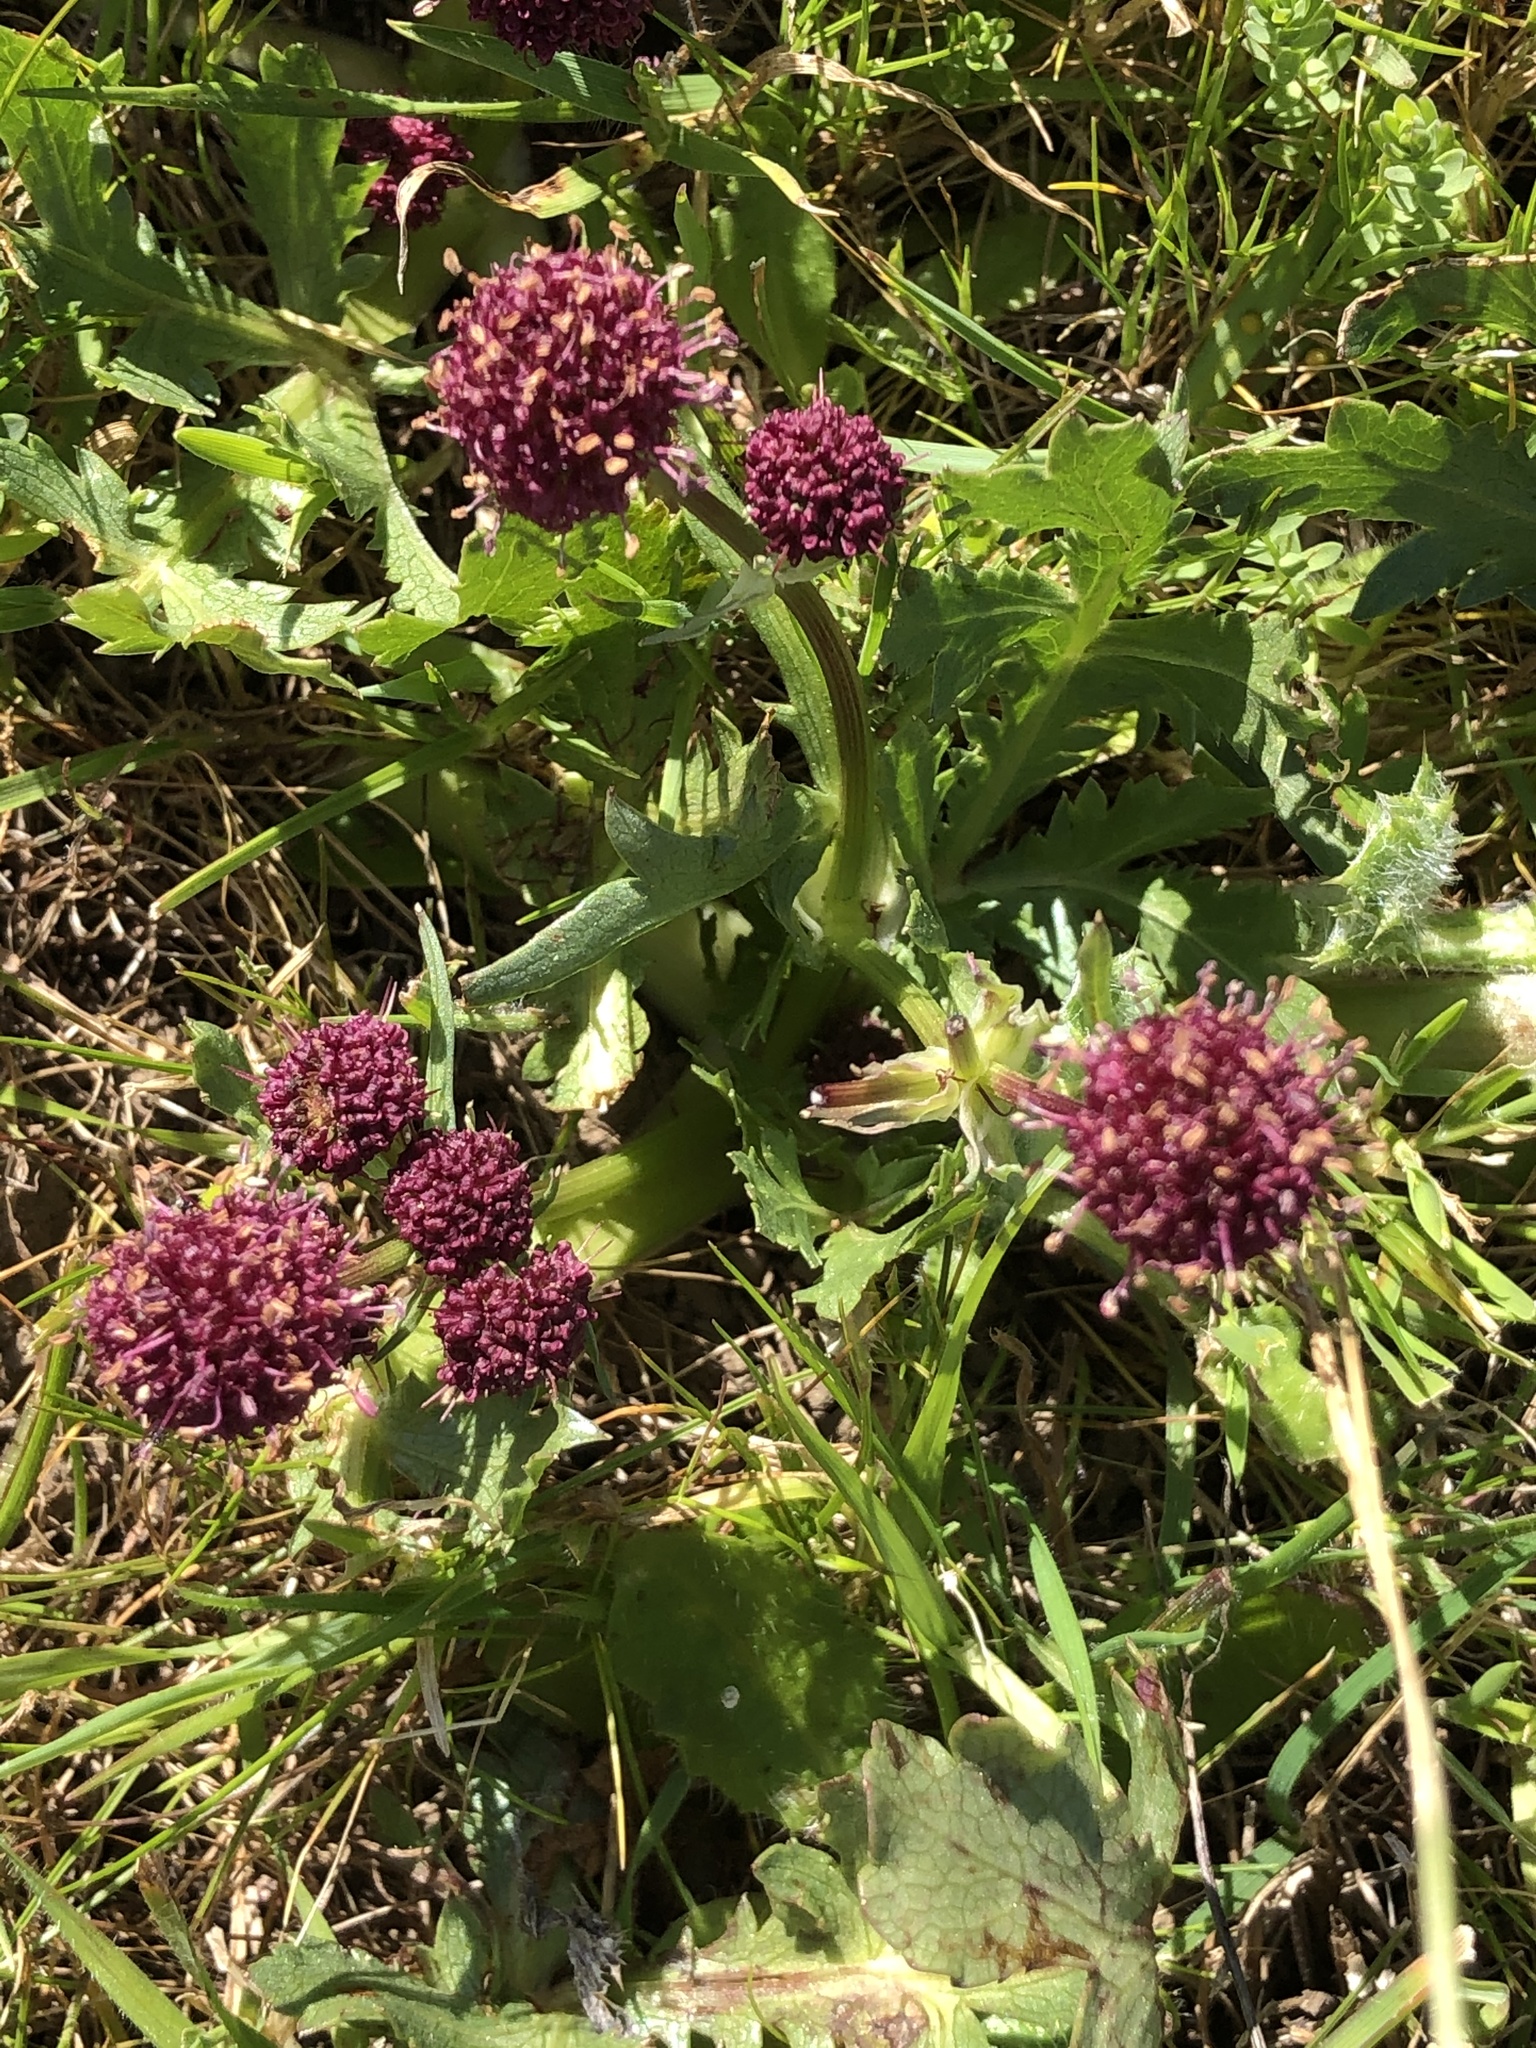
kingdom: Plantae
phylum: Tracheophyta
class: Magnoliopsida
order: Apiales
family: Apiaceae
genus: Sanicula
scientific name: Sanicula bipinnatifida
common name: Shoe-buttons
